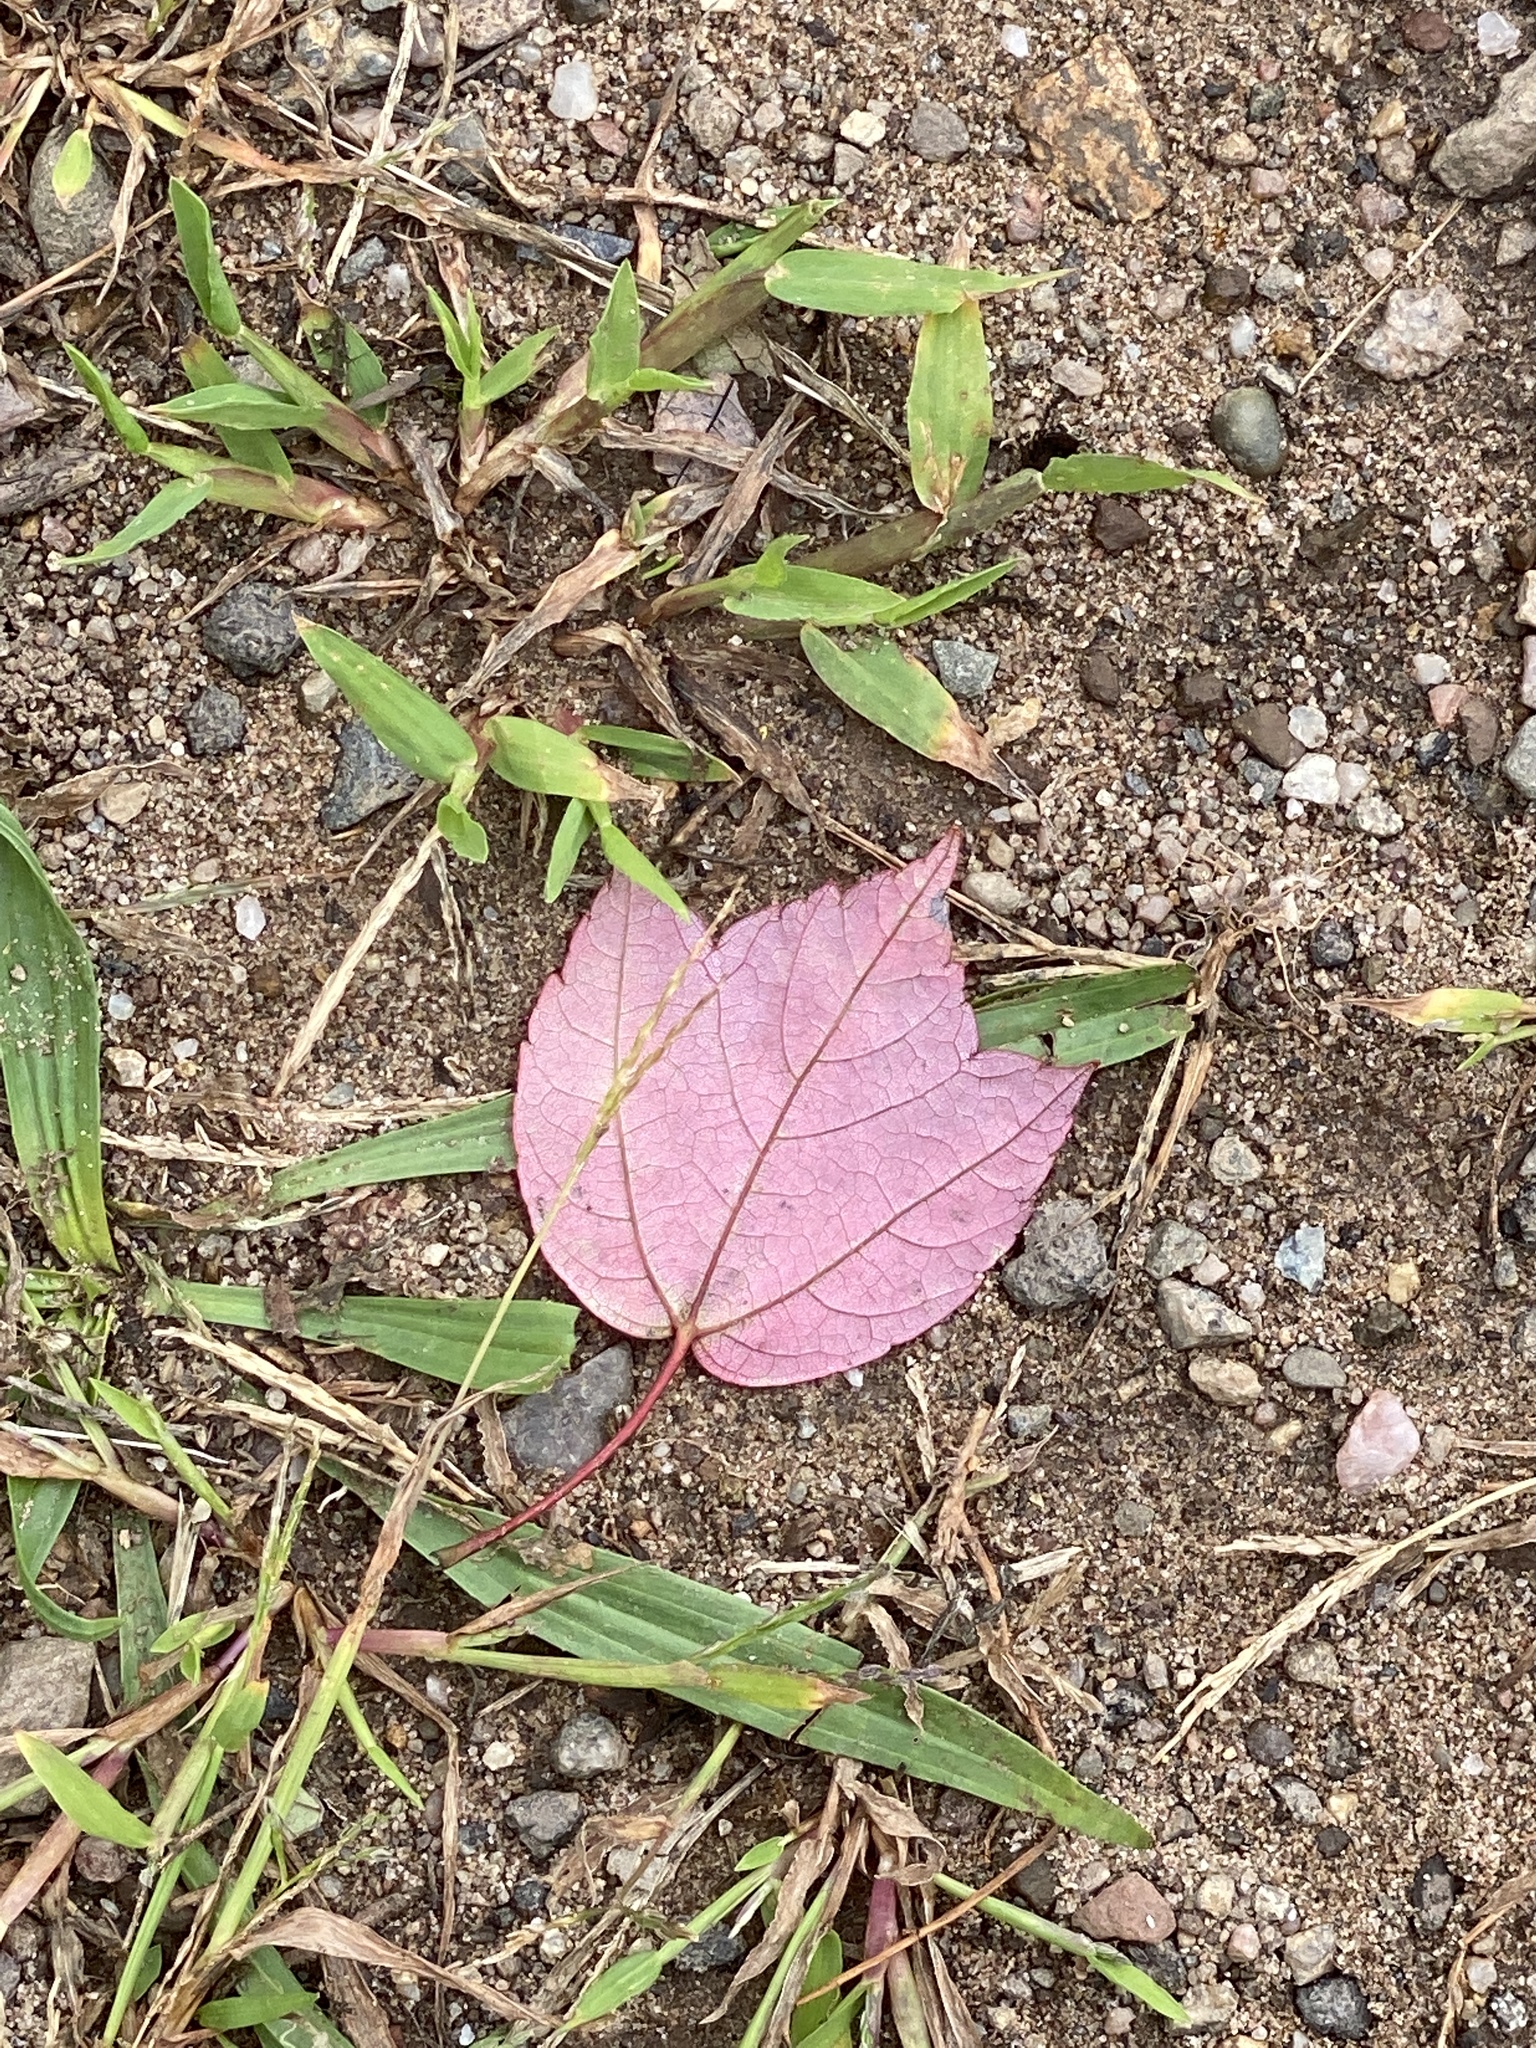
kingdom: Plantae
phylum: Tracheophyta
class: Magnoliopsida
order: Sapindales
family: Sapindaceae
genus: Acer
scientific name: Acer rubrum
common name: Red maple
